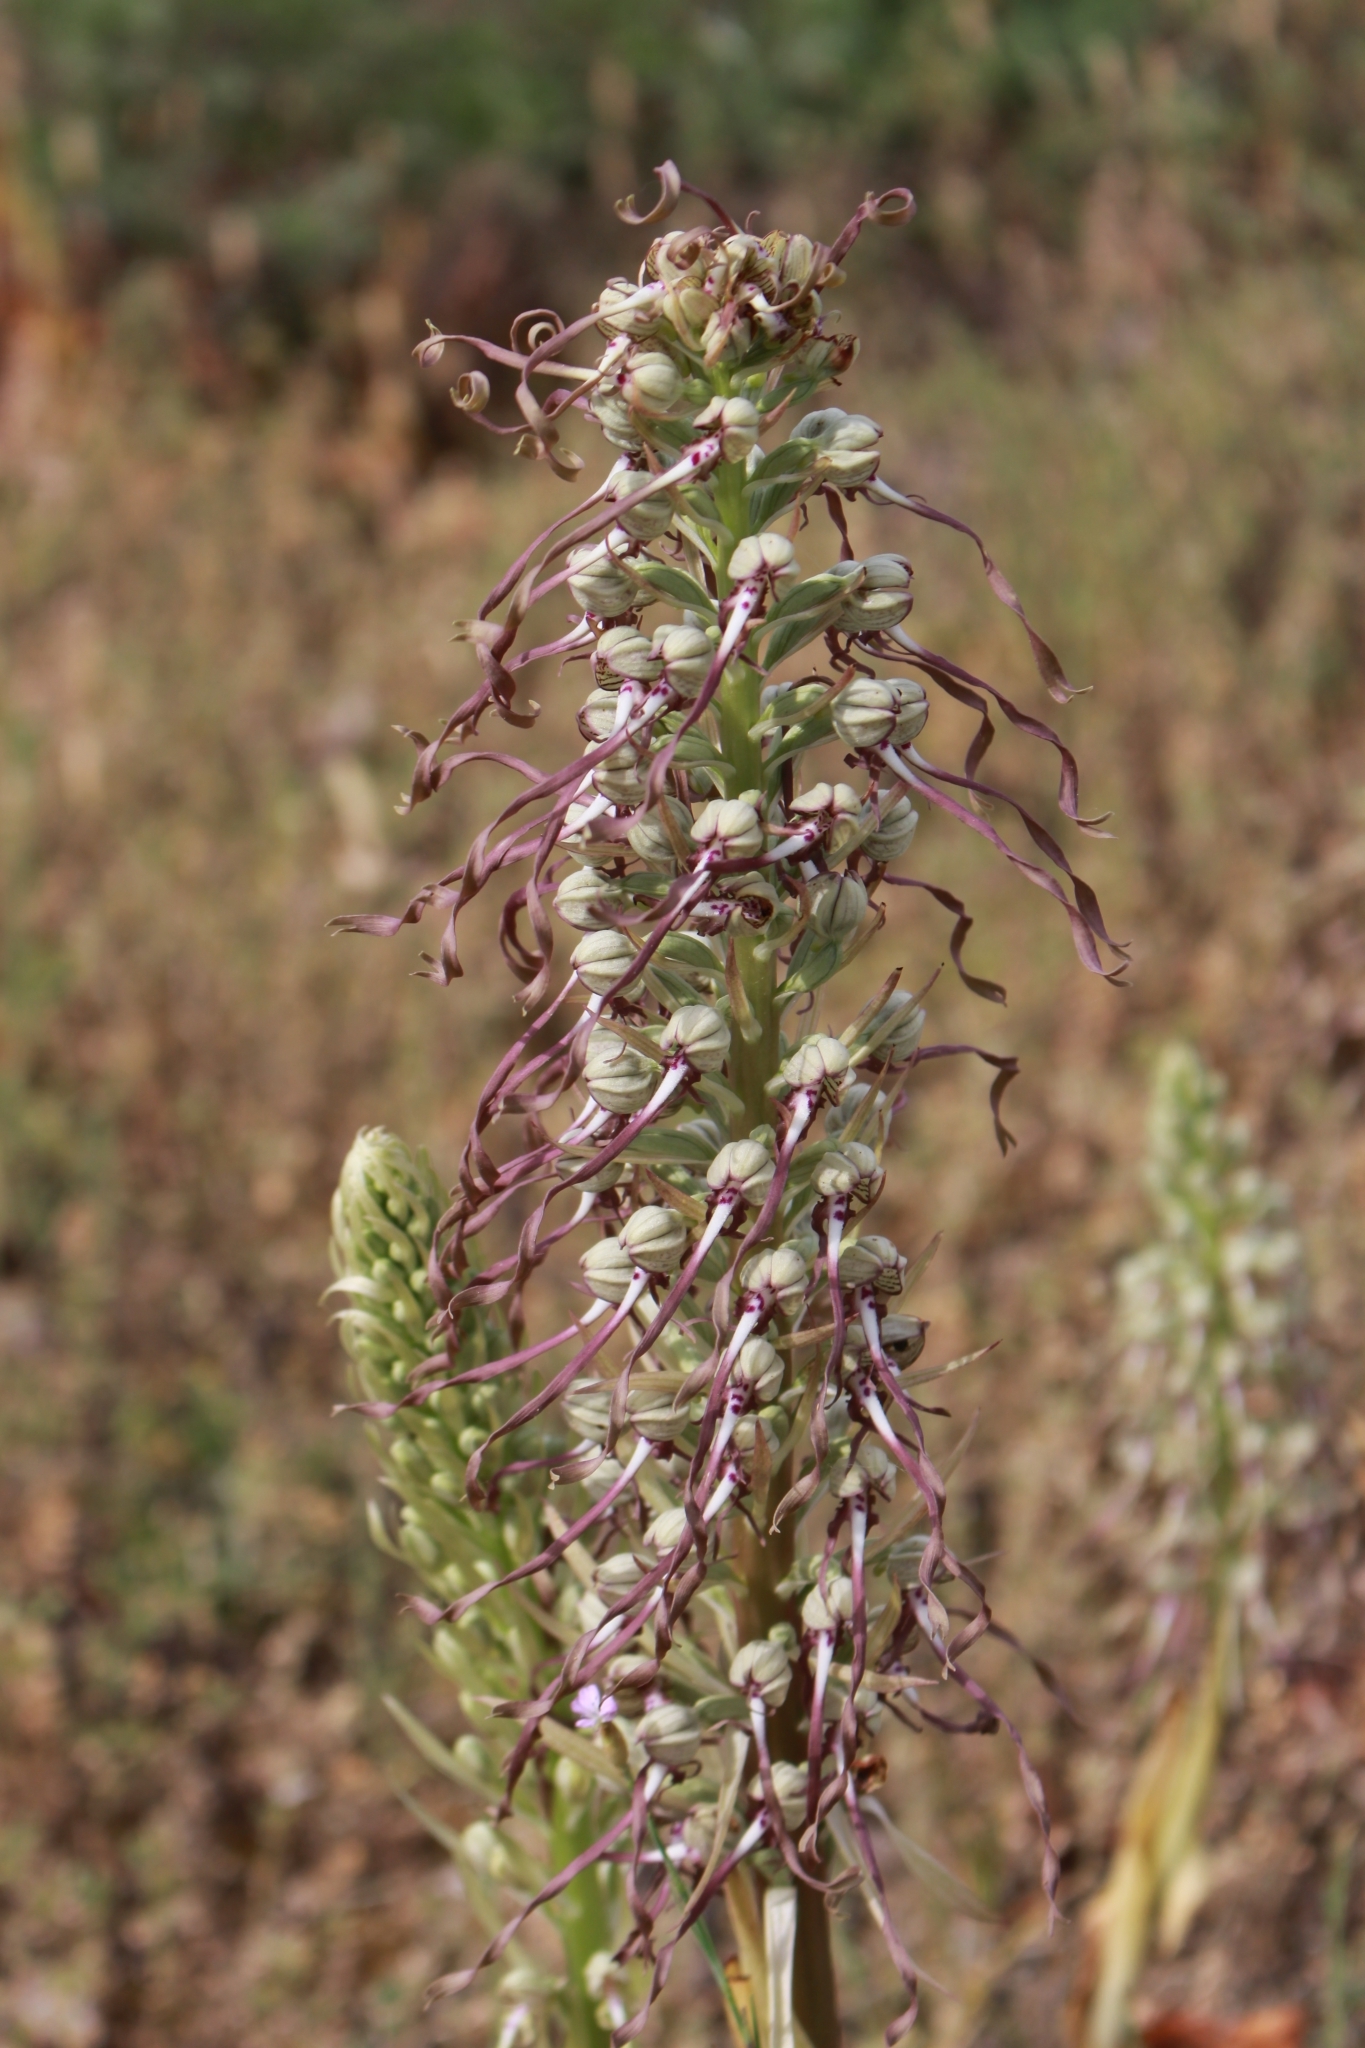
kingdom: Plantae
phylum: Tracheophyta
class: Liliopsida
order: Asparagales
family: Orchidaceae
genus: Himantoglossum
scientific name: Himantoglossum hircinum
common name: Lizard orchid
